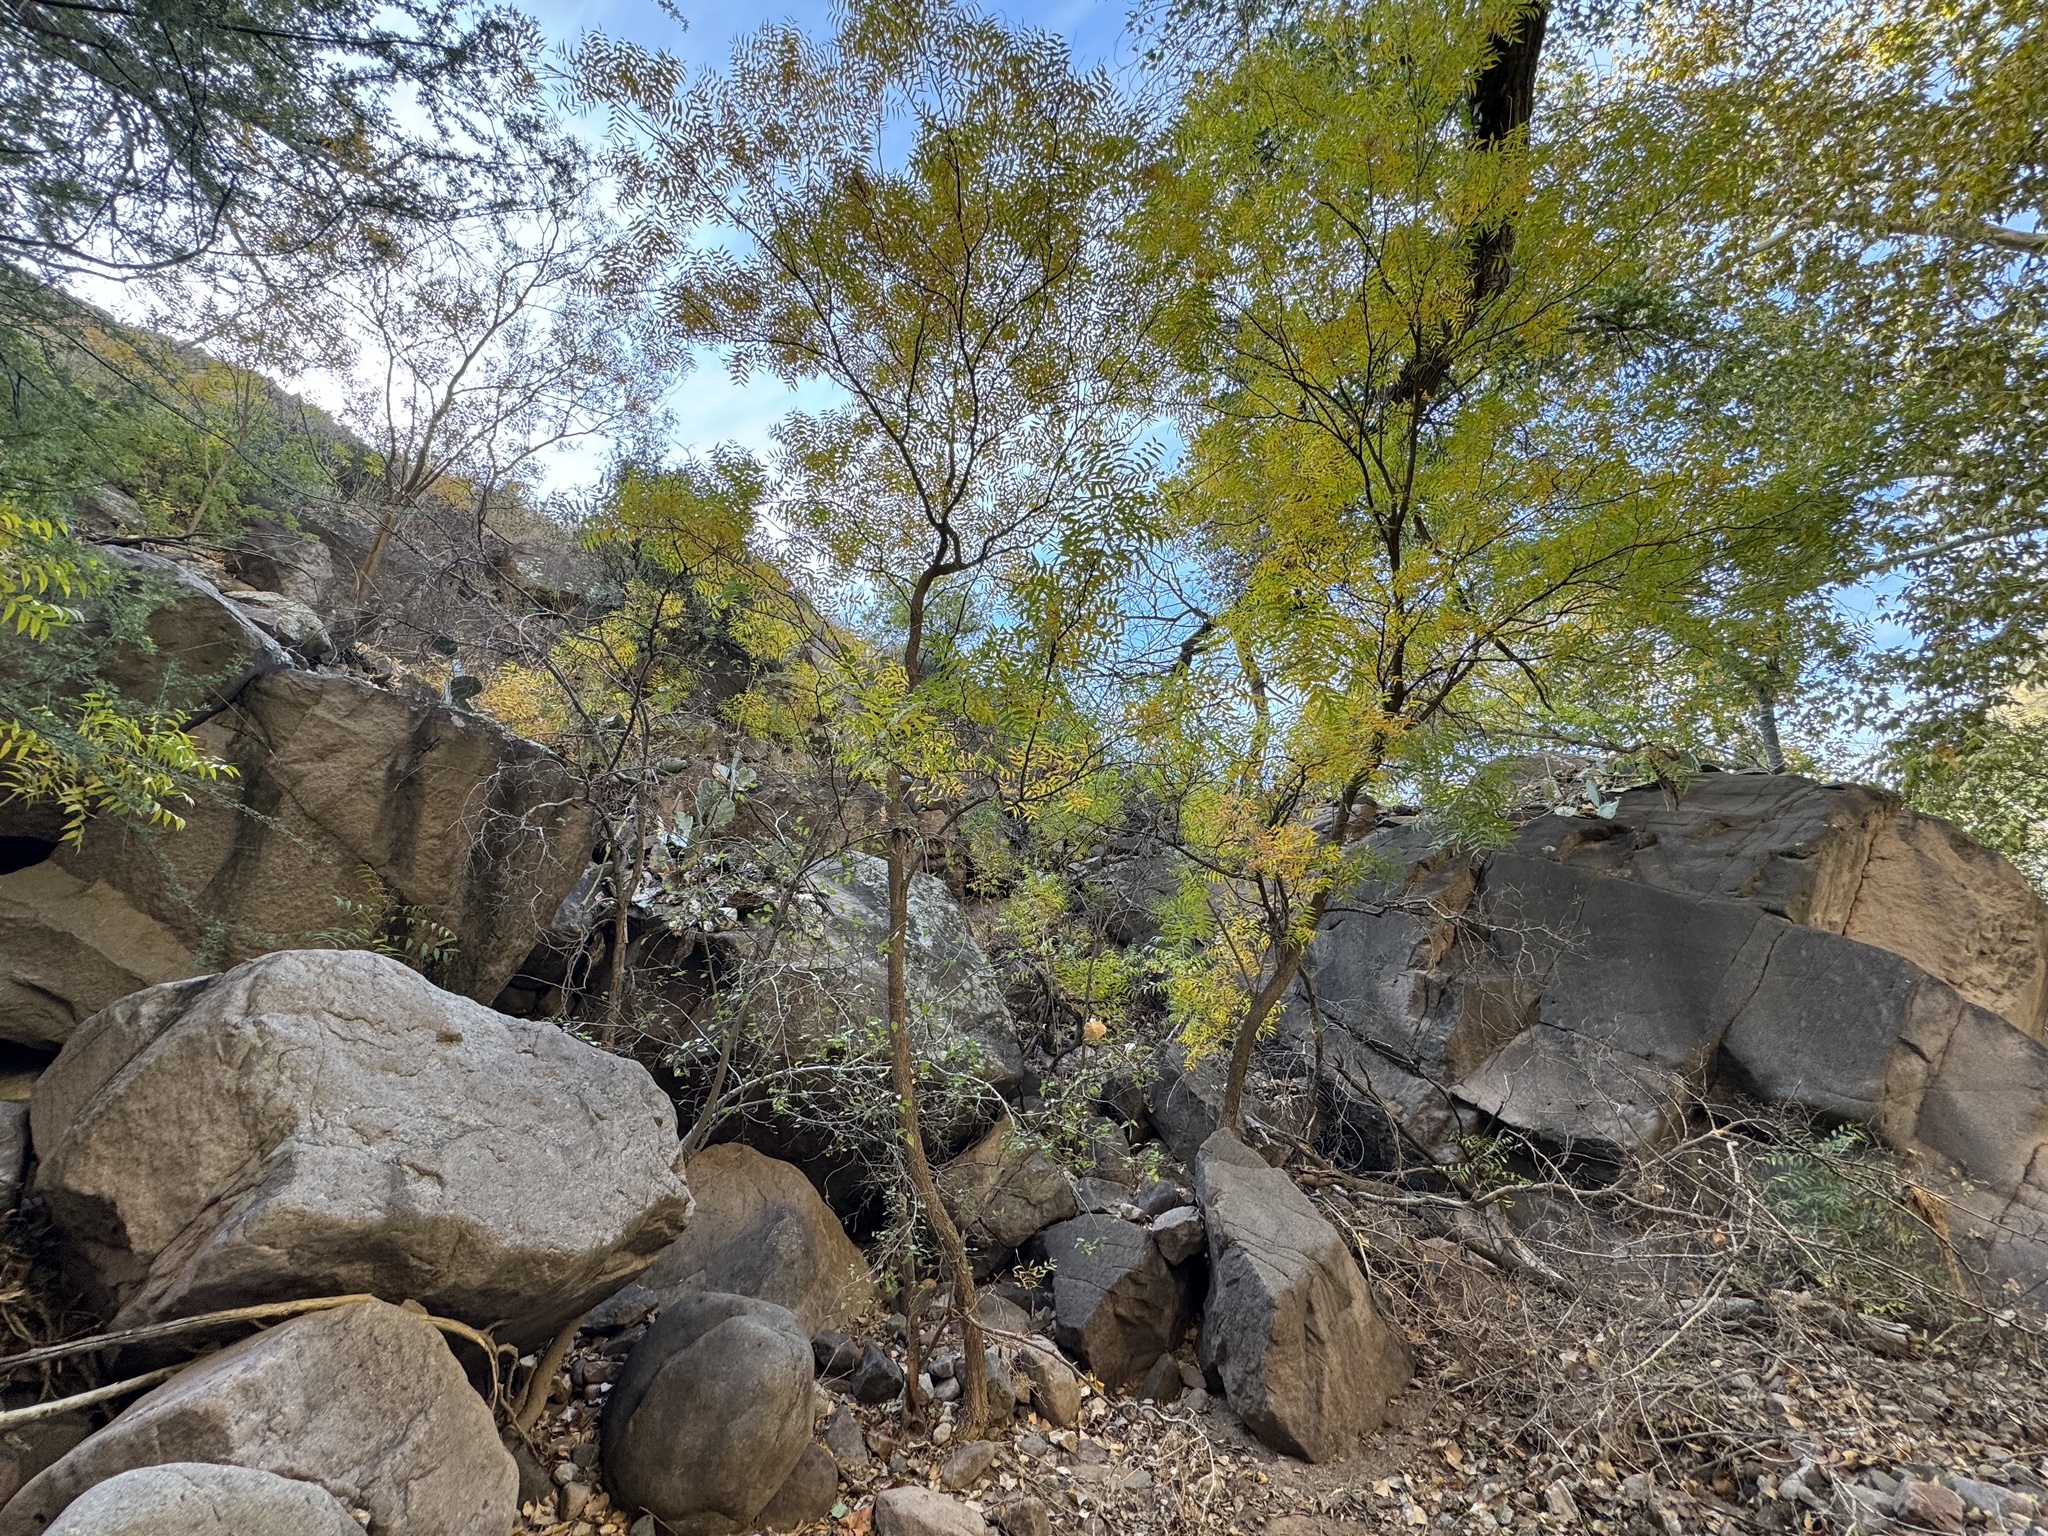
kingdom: Plantae
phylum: Tracheophyta
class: Magnoliopsida
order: Sapindales
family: Sapindaceae
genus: Sapindus
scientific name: Sapindus drummondii
